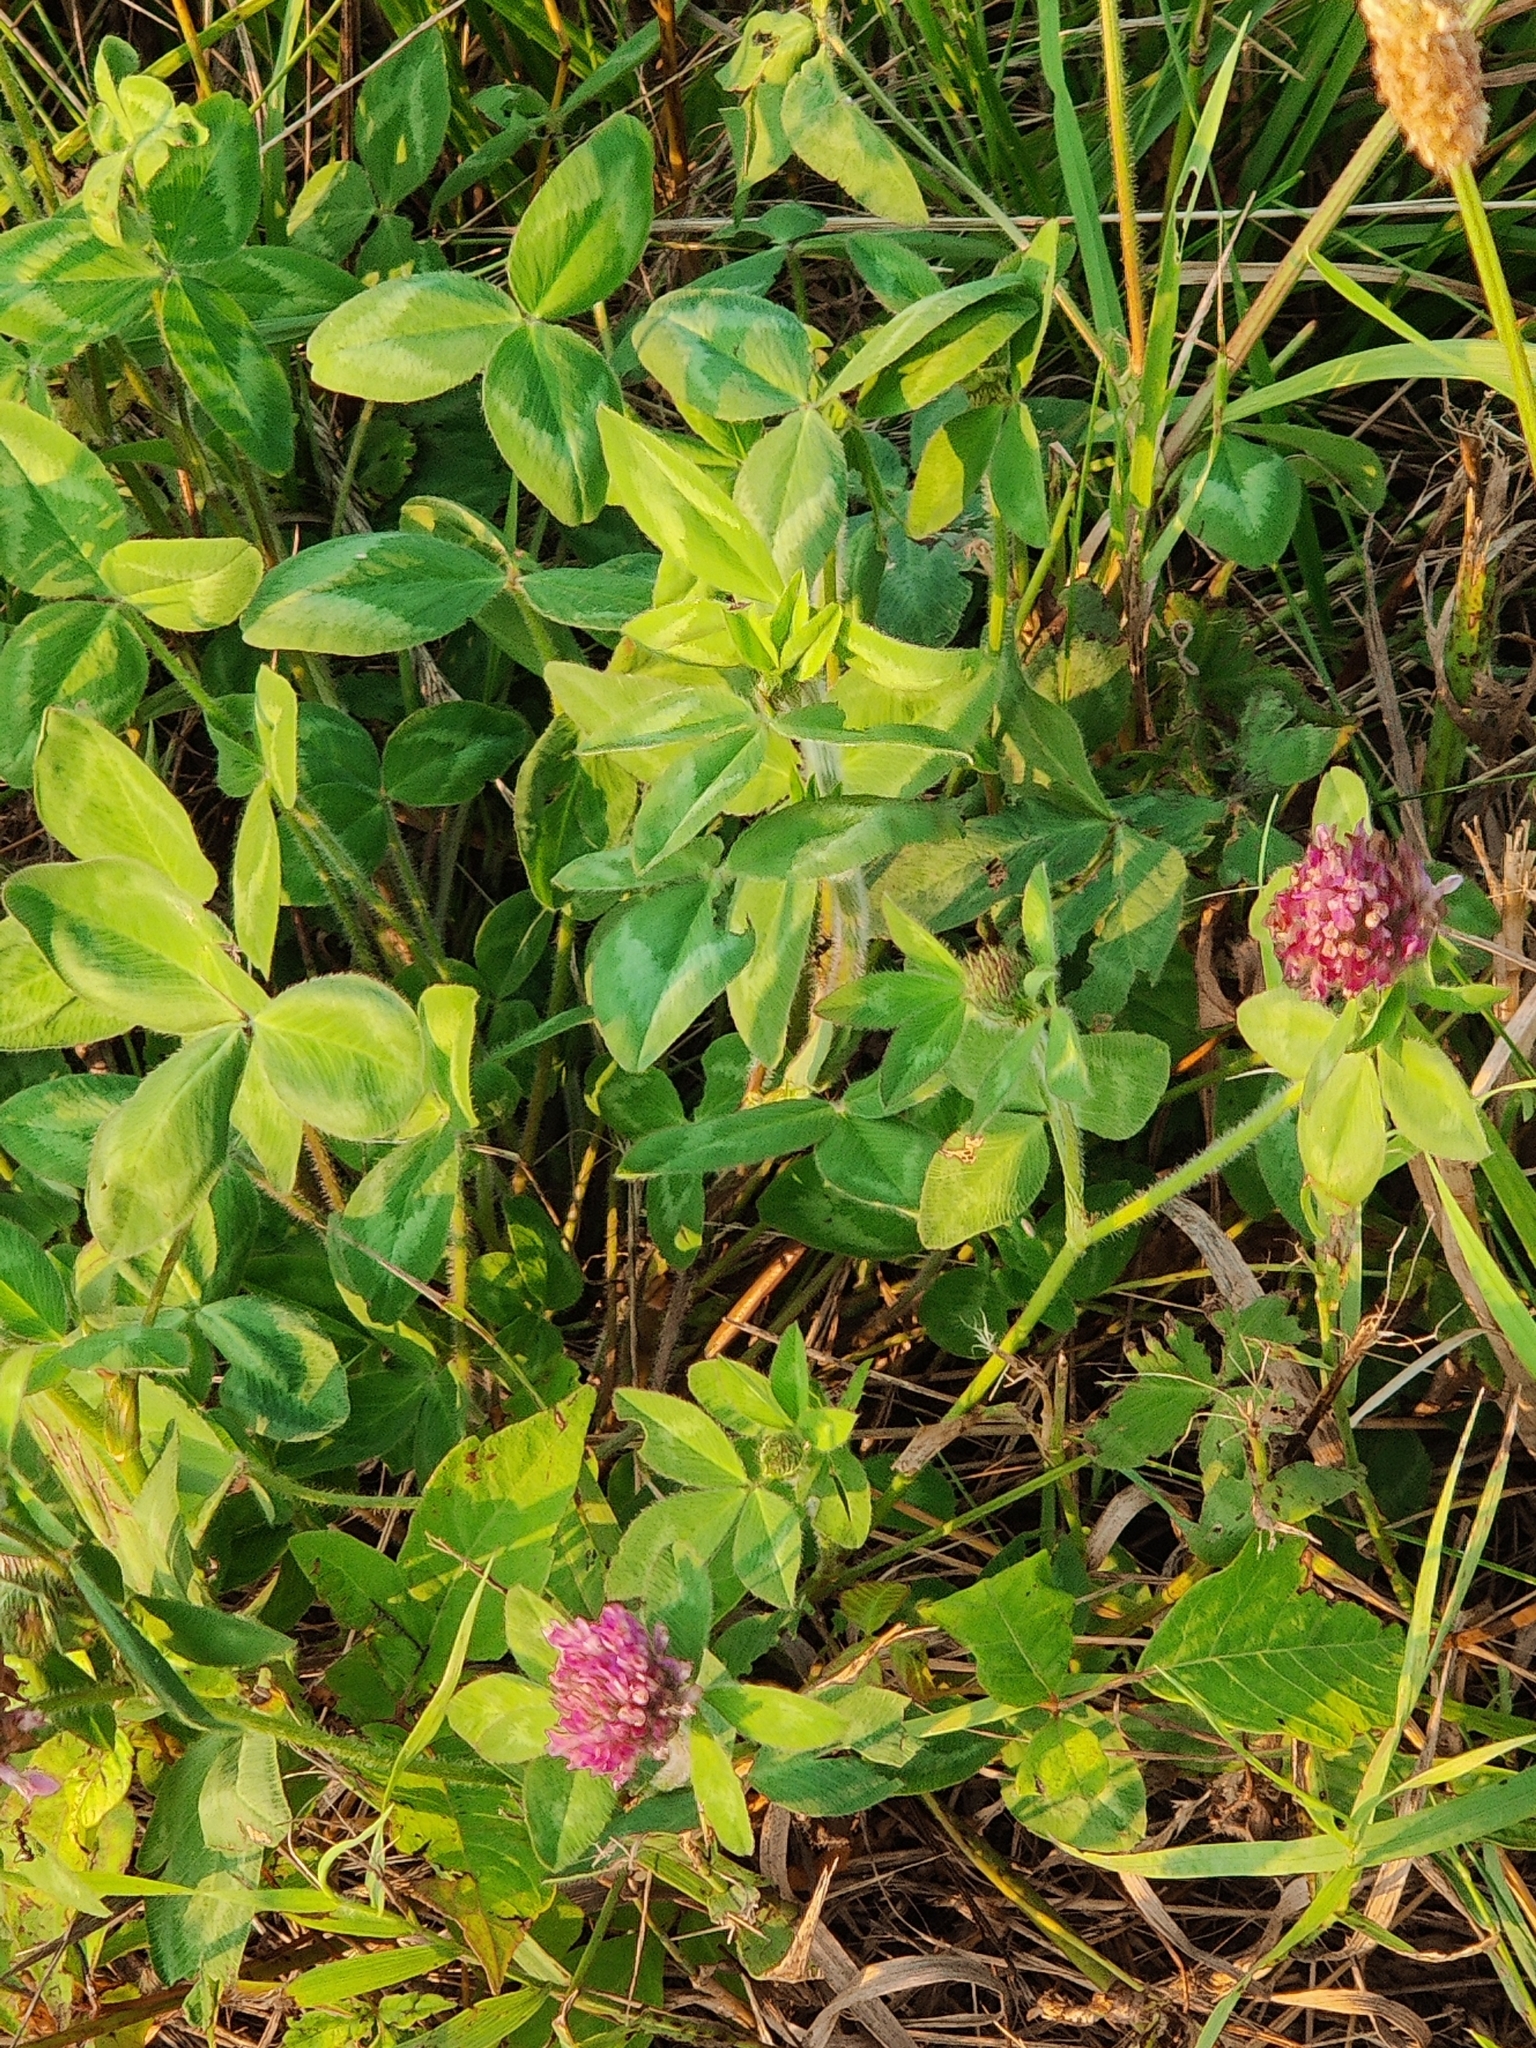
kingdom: Plantae
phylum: Tracheophyta
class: Magnoliopsida
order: Fabales
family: Fabaceae
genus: Trifolium
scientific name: Trifolium pratense
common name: Red clover
